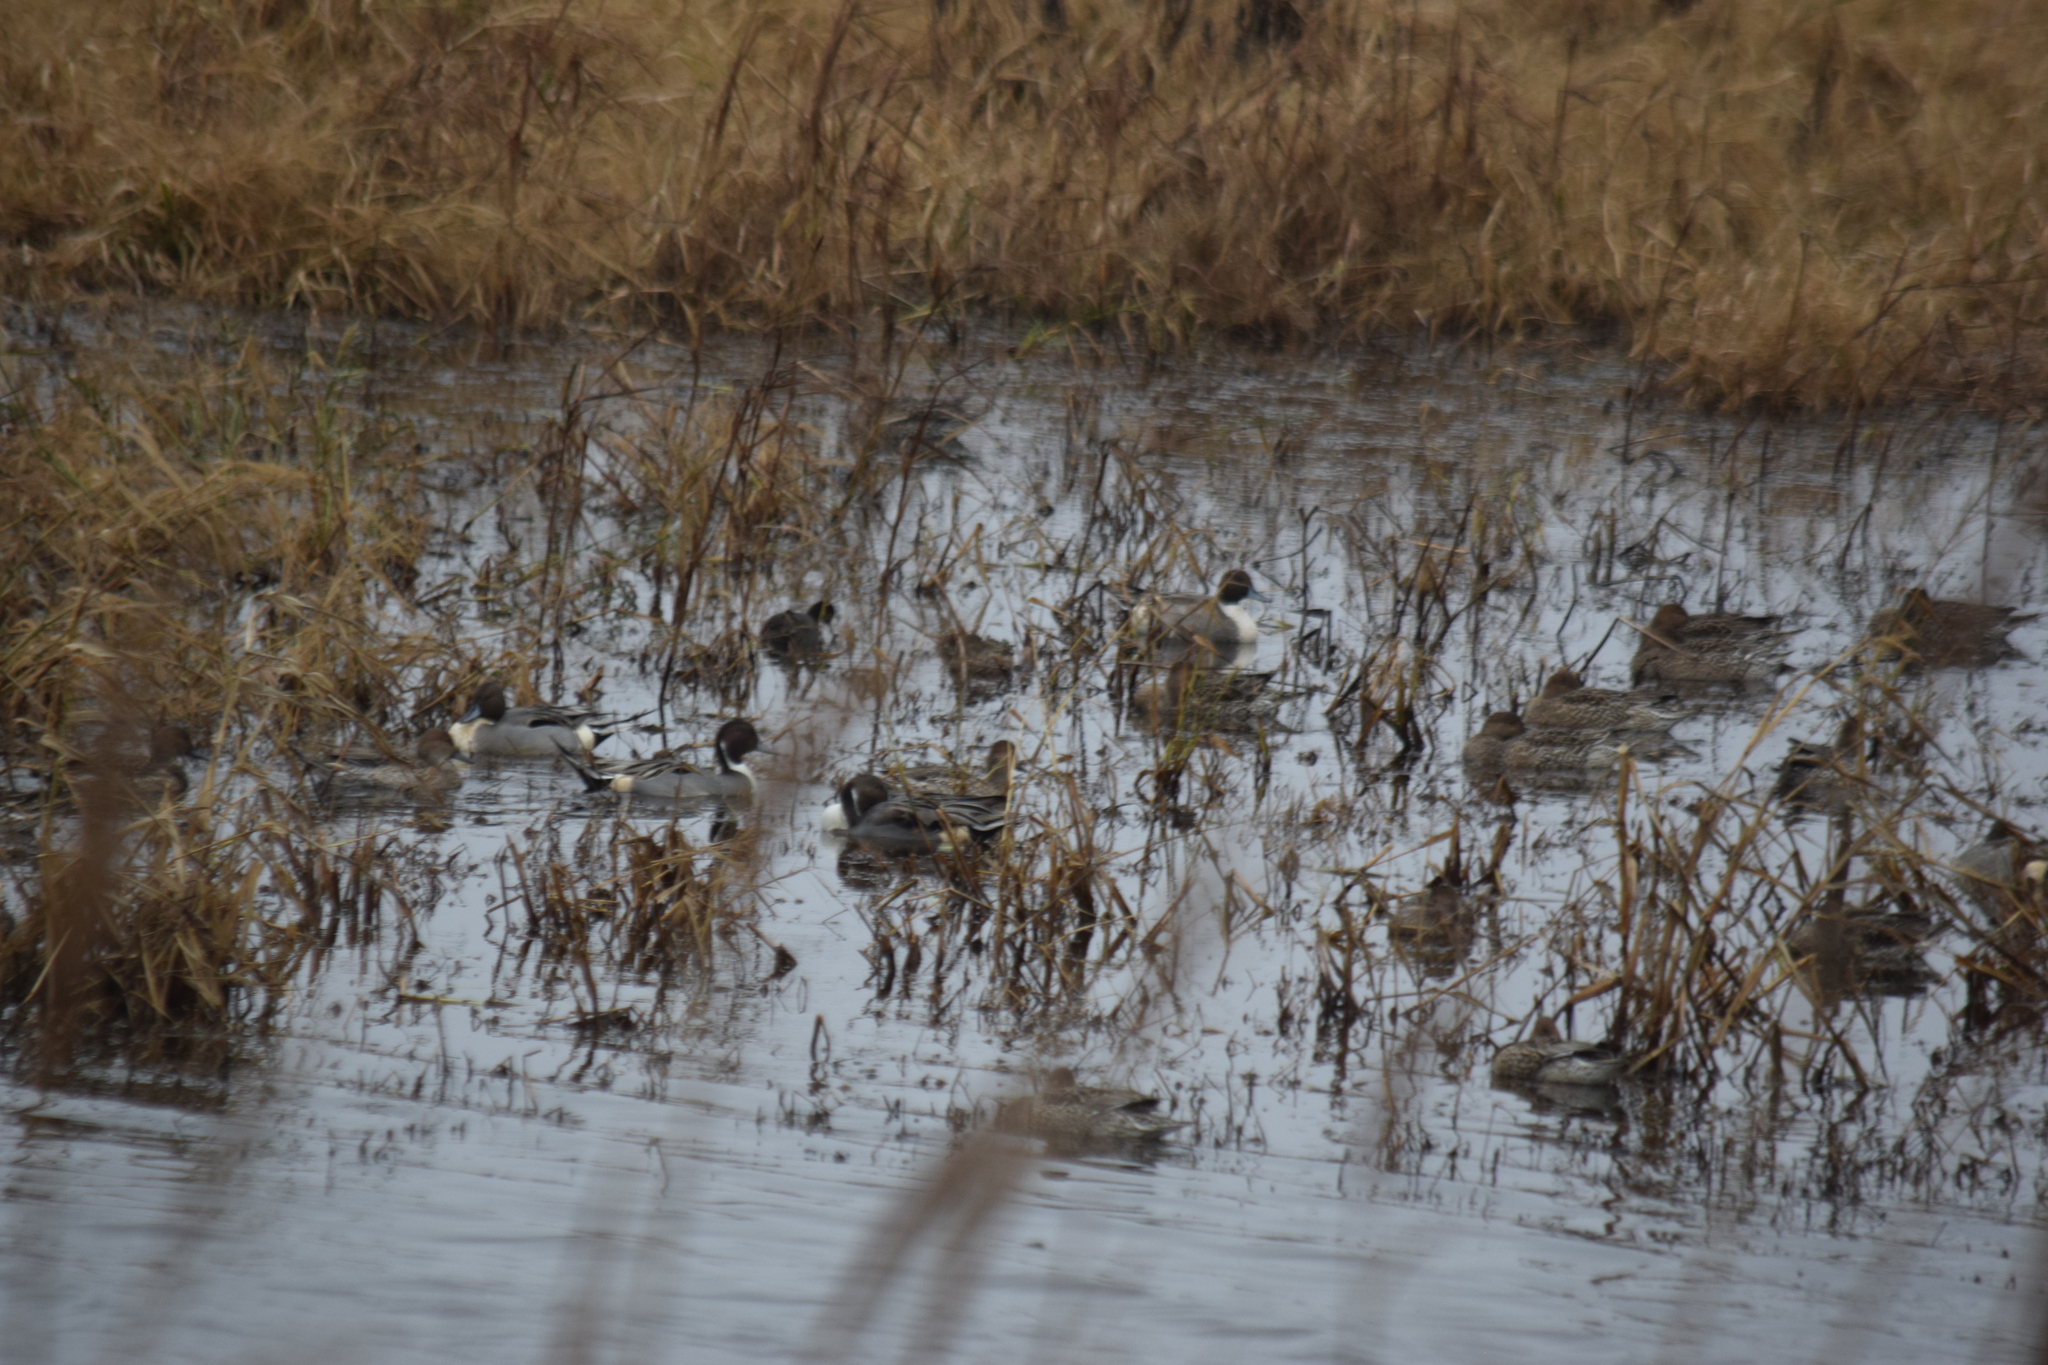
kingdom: Animalia
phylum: Chordata
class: Aves
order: Anseriformes
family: Anatidae
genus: Anas
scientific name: Anas acuta
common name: Northern pintail
